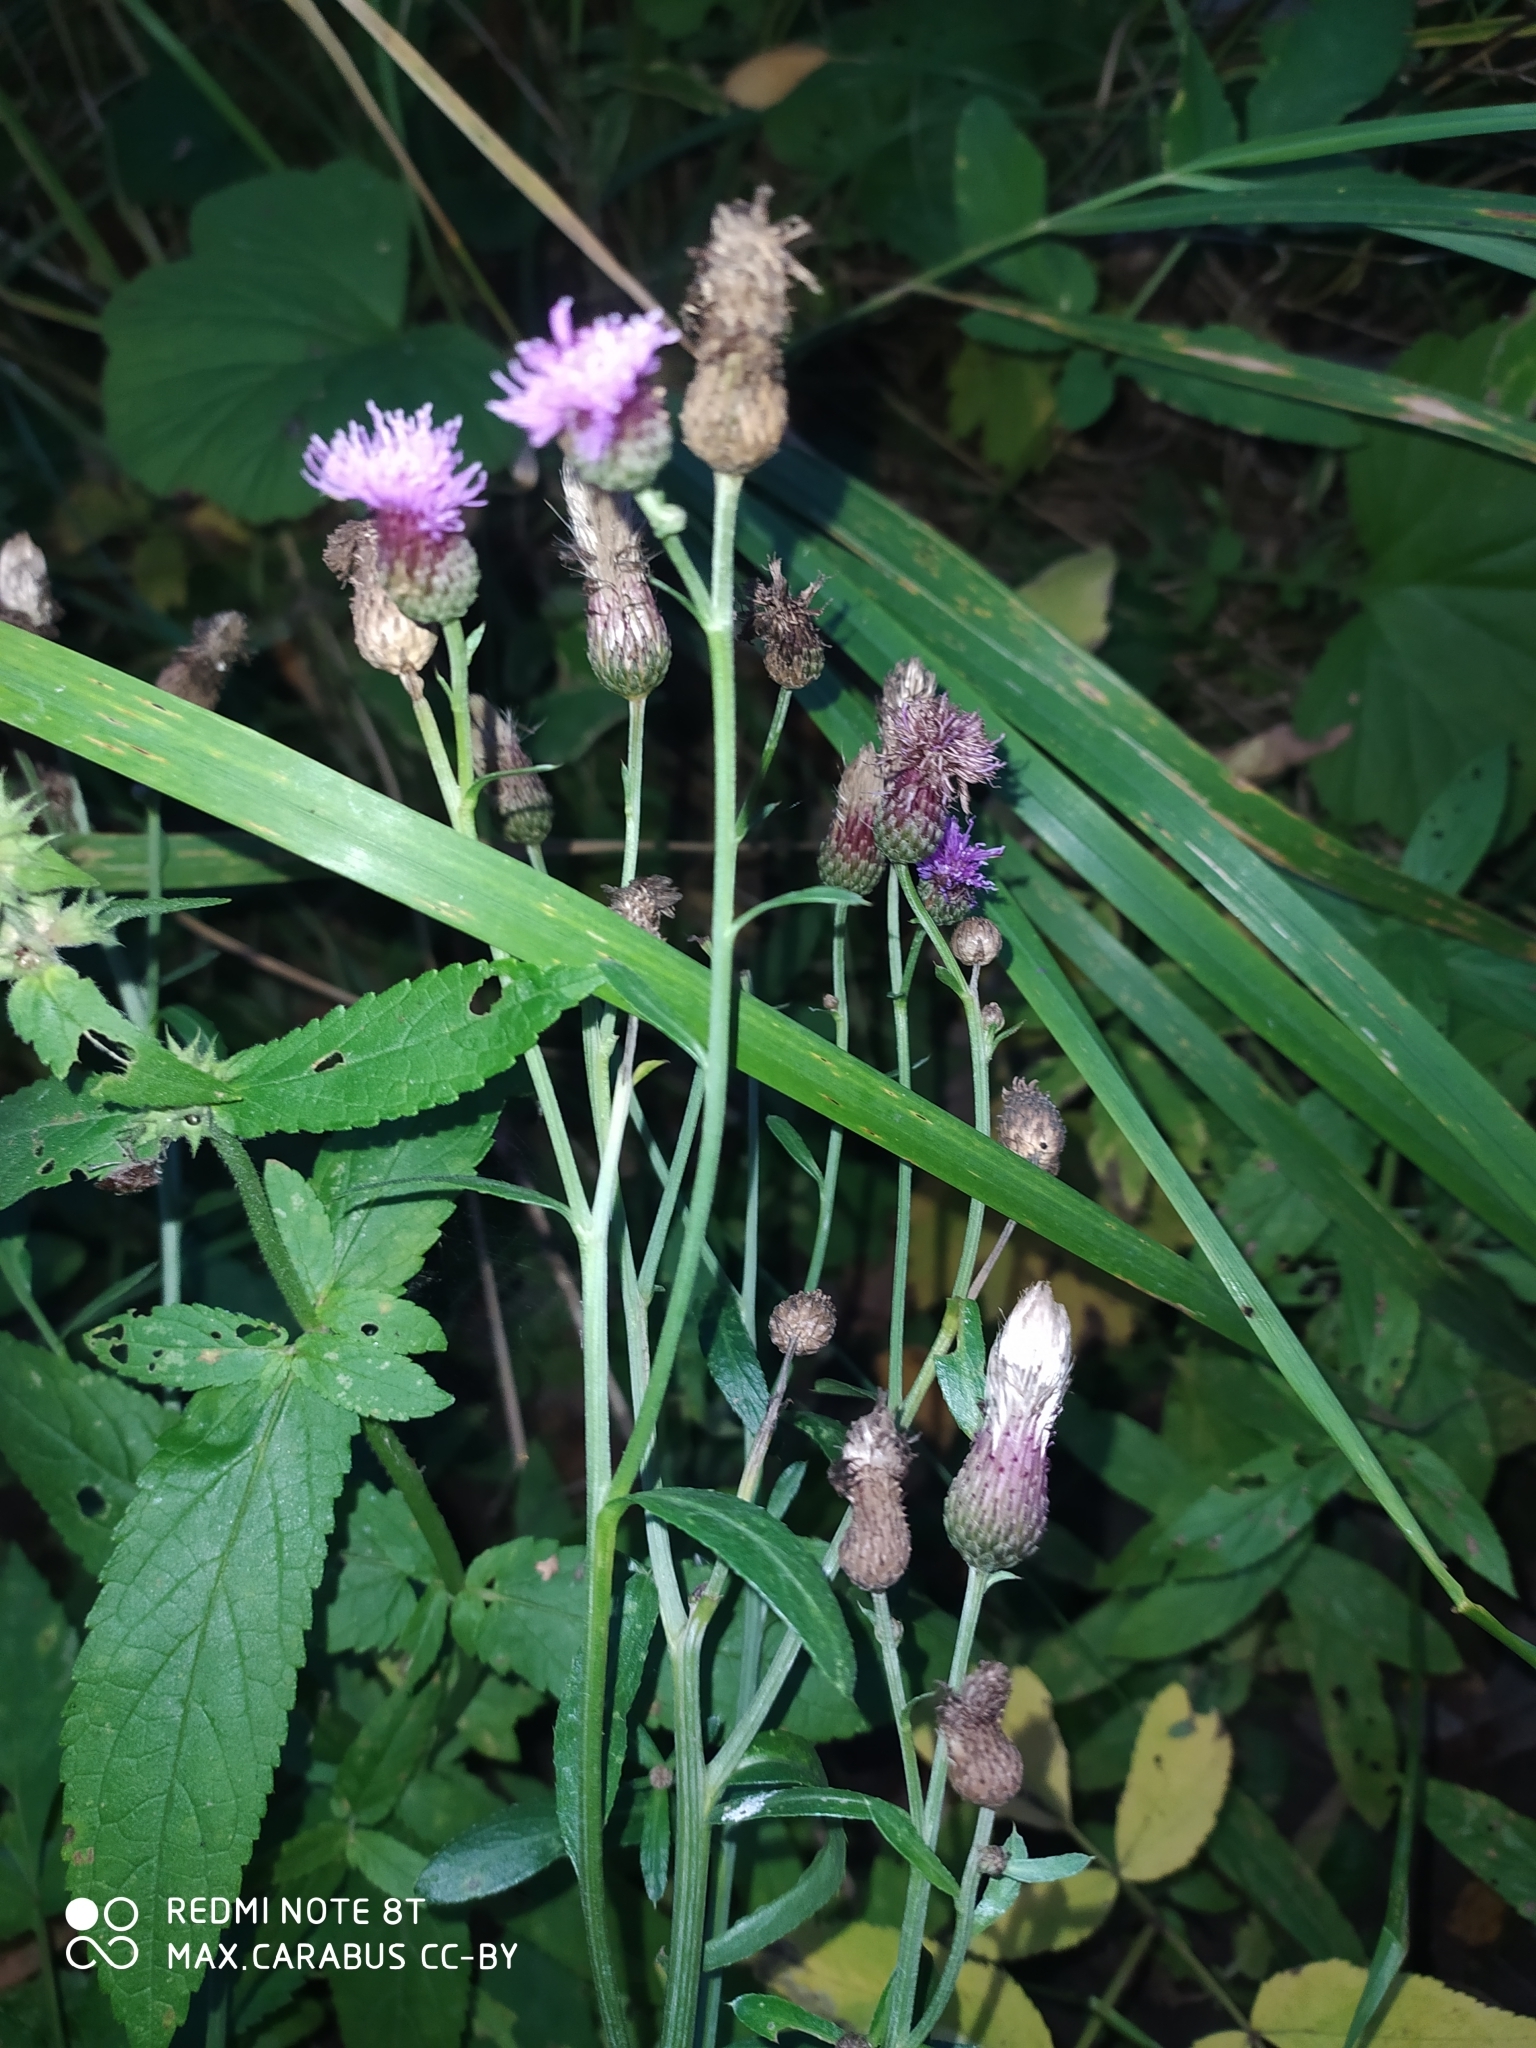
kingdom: Plantae
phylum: Tracheophyta
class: Magnoliopsida
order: Asterales
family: Asteraceae
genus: Cirsium
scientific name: Cirsium arvense
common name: Creeping thistle
